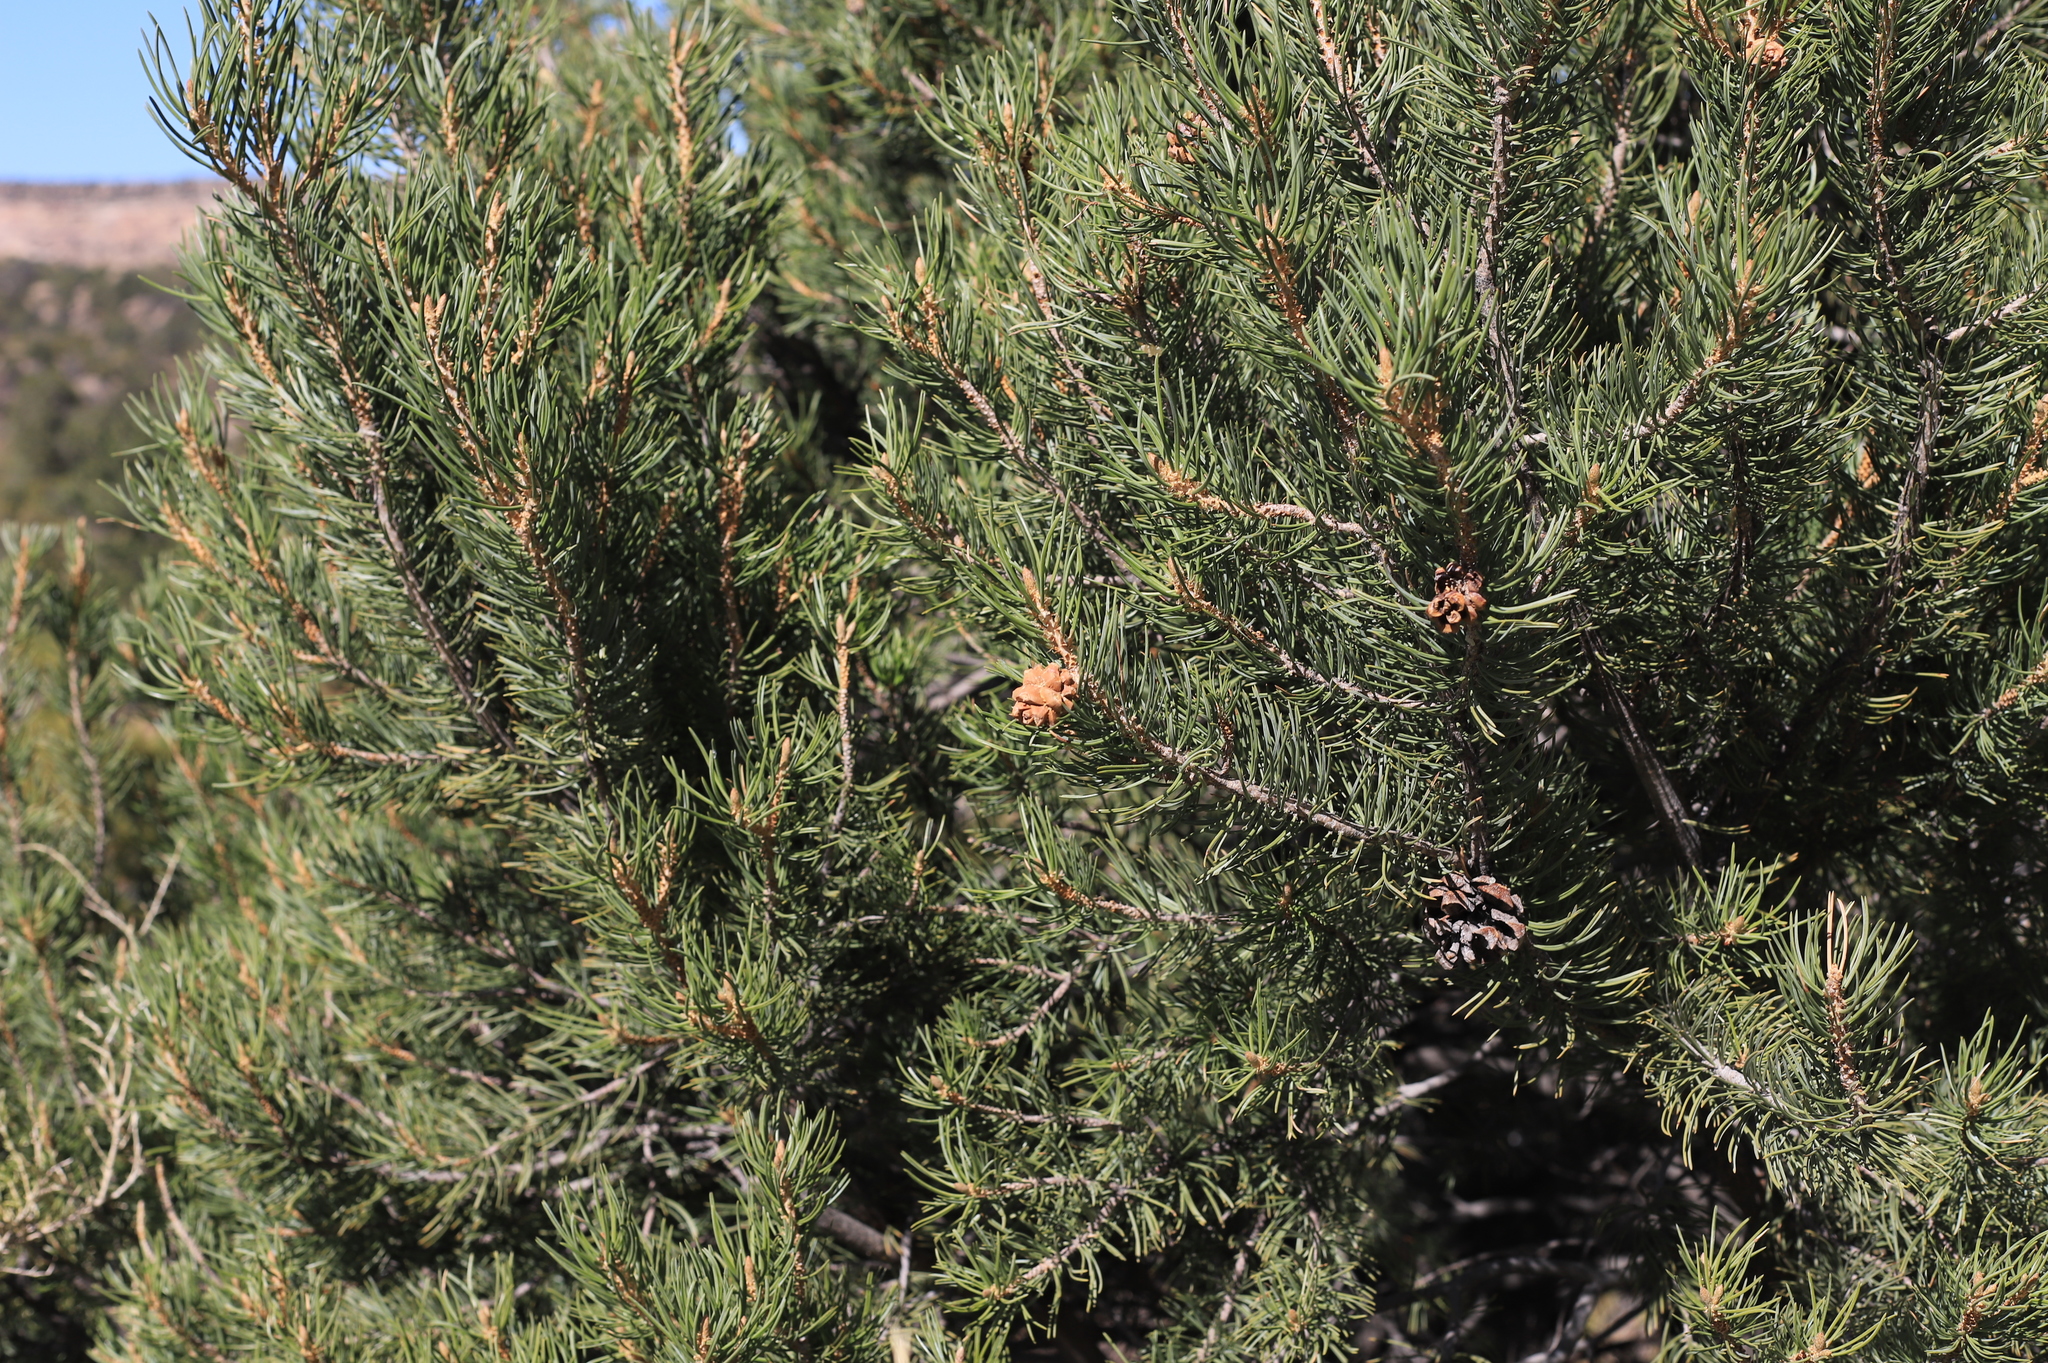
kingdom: Plantae
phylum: Tracheophyta
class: Pinopsida
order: Pinales
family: Pinaceae
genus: Pinus
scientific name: Pinus edulis
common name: Colorado pinyon
